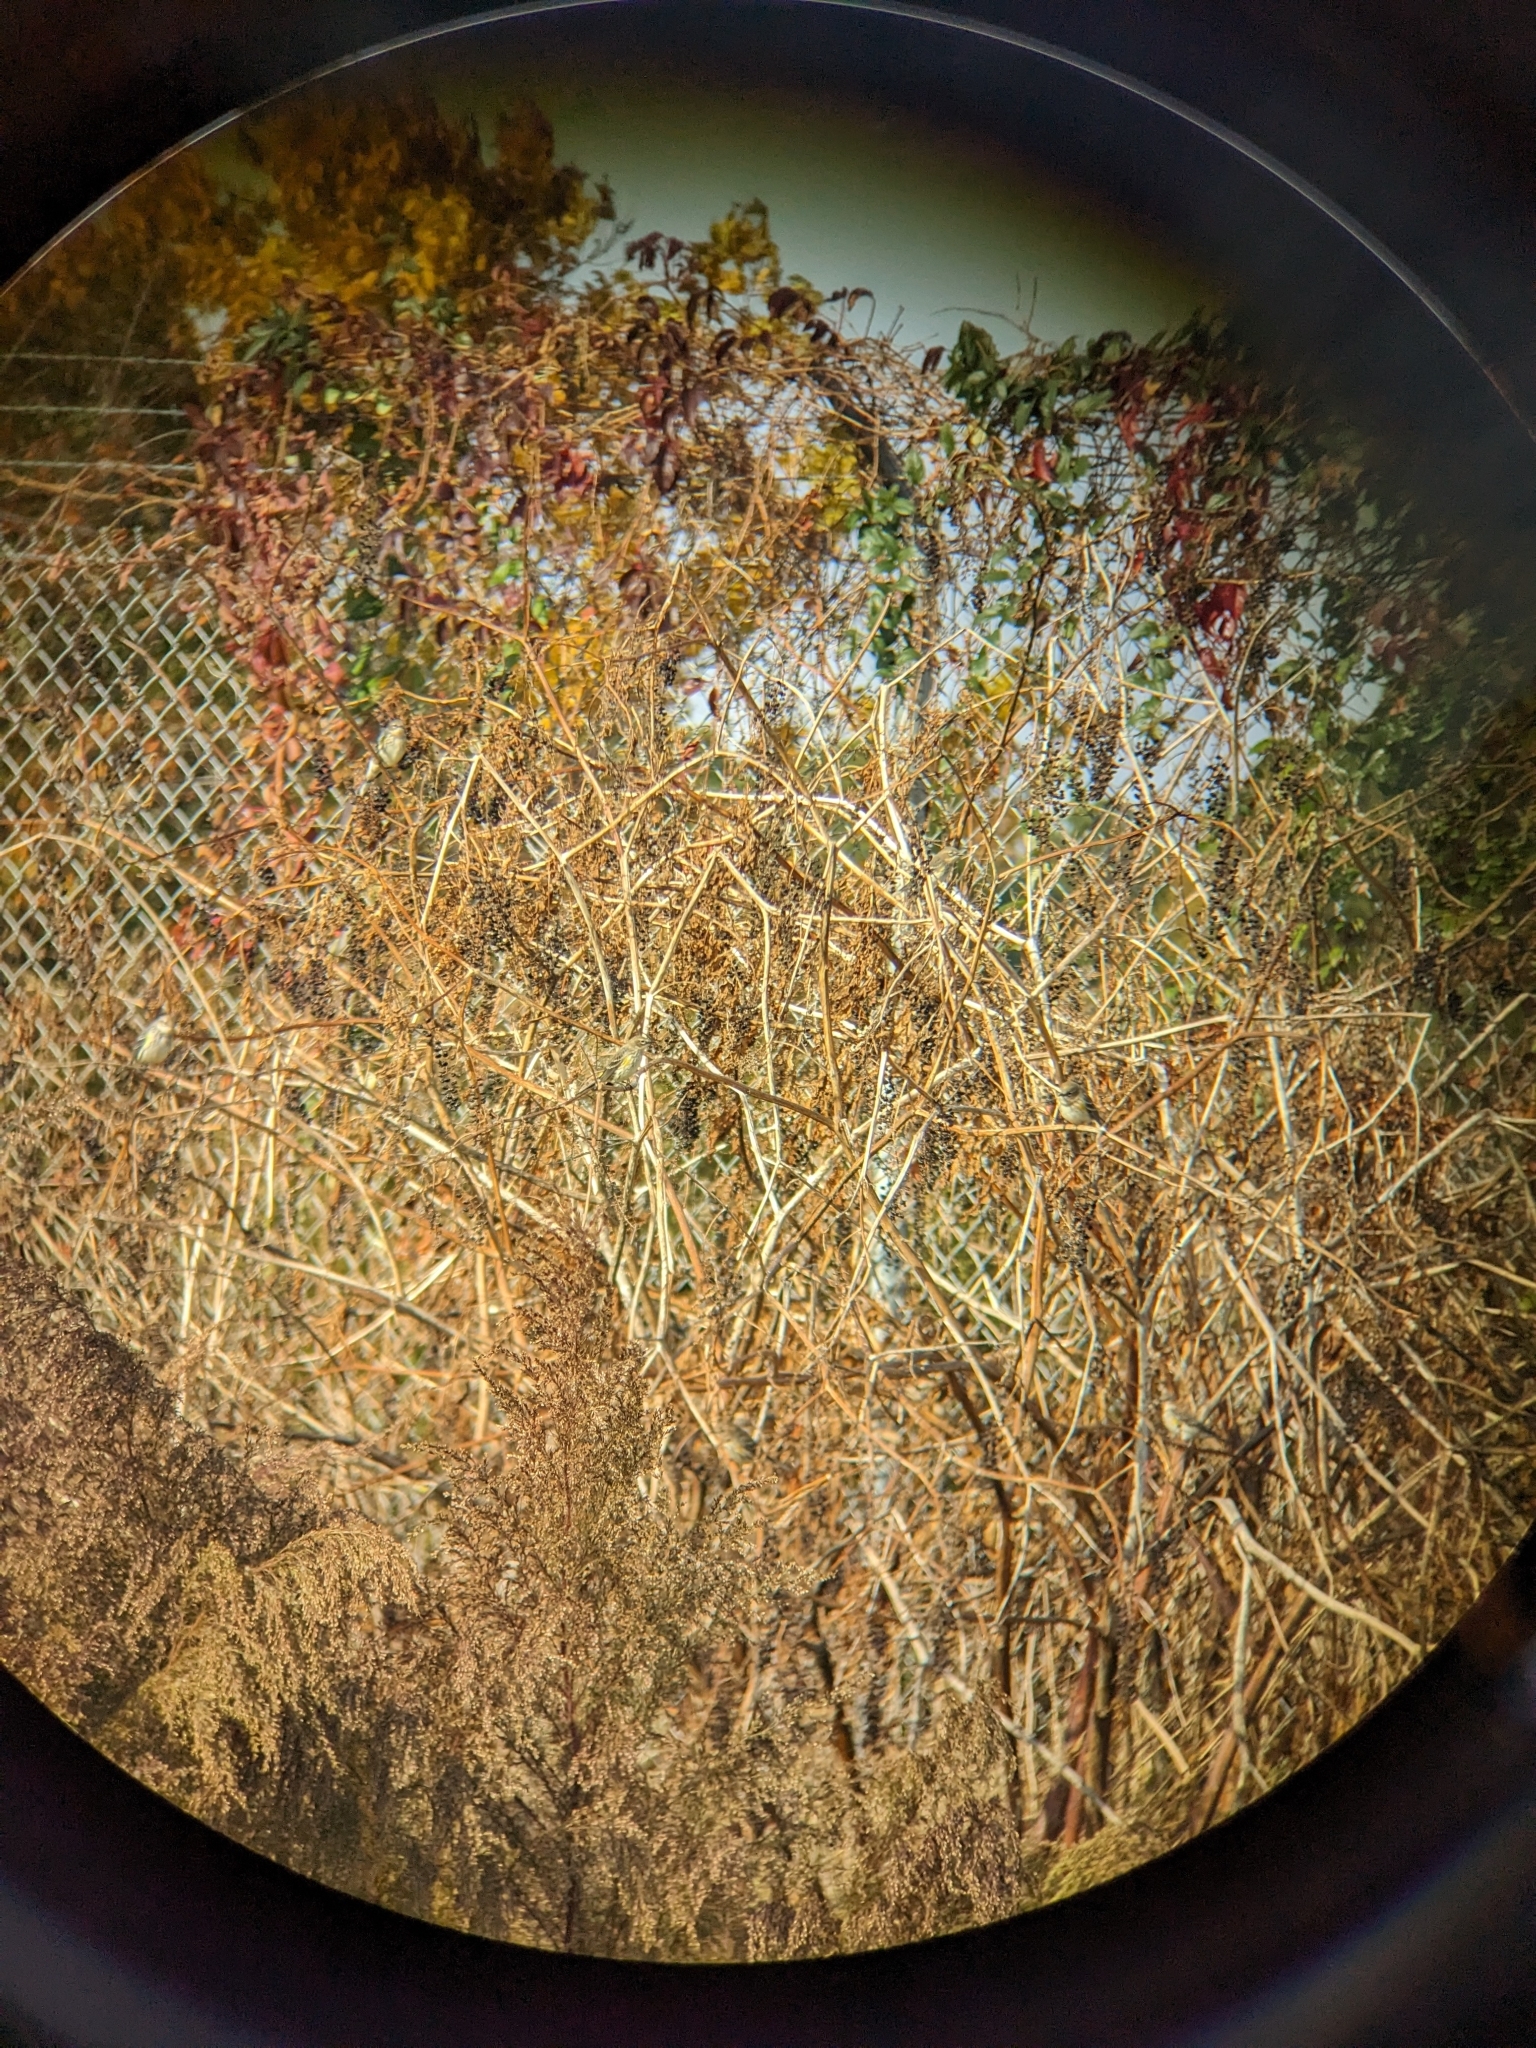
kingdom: Animalia
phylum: Chordata
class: Aves
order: Passeriformes
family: Parulidae
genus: Setophaga
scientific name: Setophaga coronata
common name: Myrtle warbler
